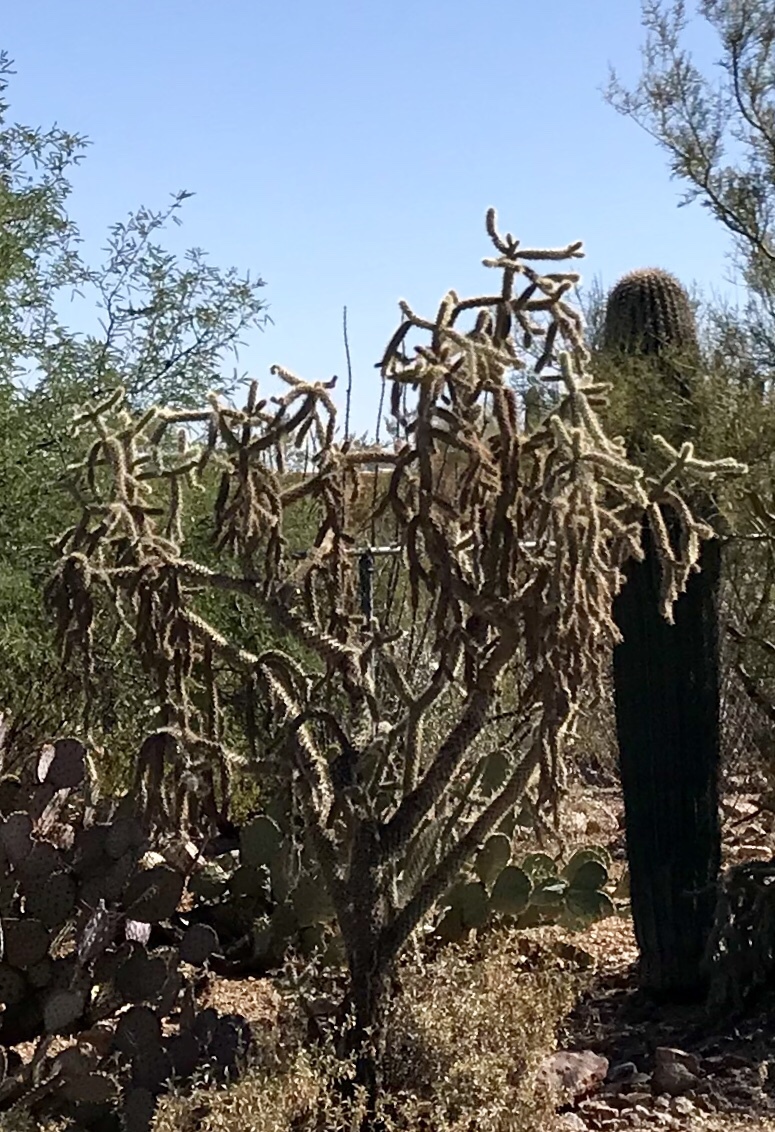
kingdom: Plantae
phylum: Tracheophyta
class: Magnoliopsida
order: Caryophyllales
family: Cactaceae
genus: Cylindropuntia
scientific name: Cylindropuntia thurberi
